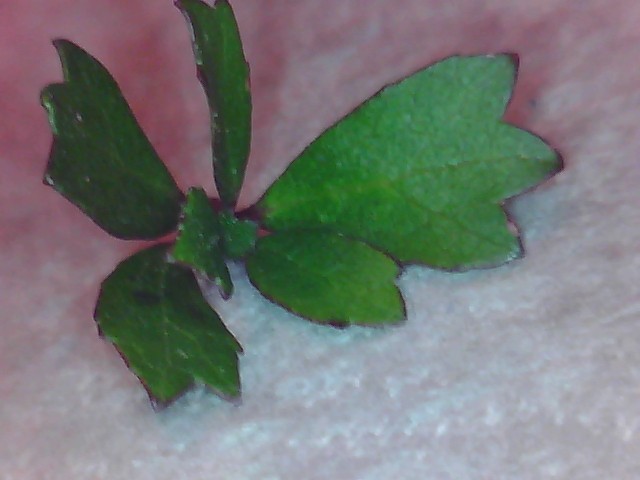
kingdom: Plantae
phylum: Tracheophyta
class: Magnoliopsida
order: Malvales
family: Malvaceae
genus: Hoheria
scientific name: Hoheria angustifolia
